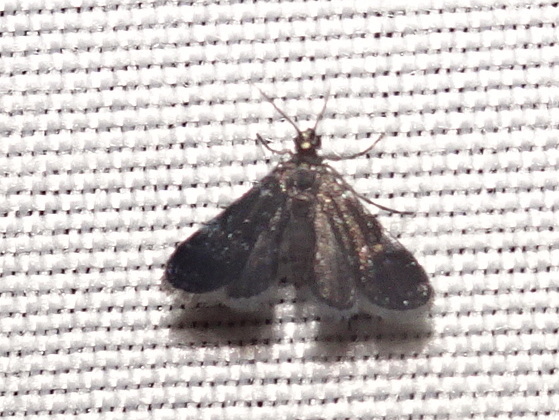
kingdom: Animalia
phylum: Arthropoda
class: Insecta
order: Lepidoptera
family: Crambidae
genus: Elophila
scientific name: Elophila tinealis
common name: Black duckweed moth
